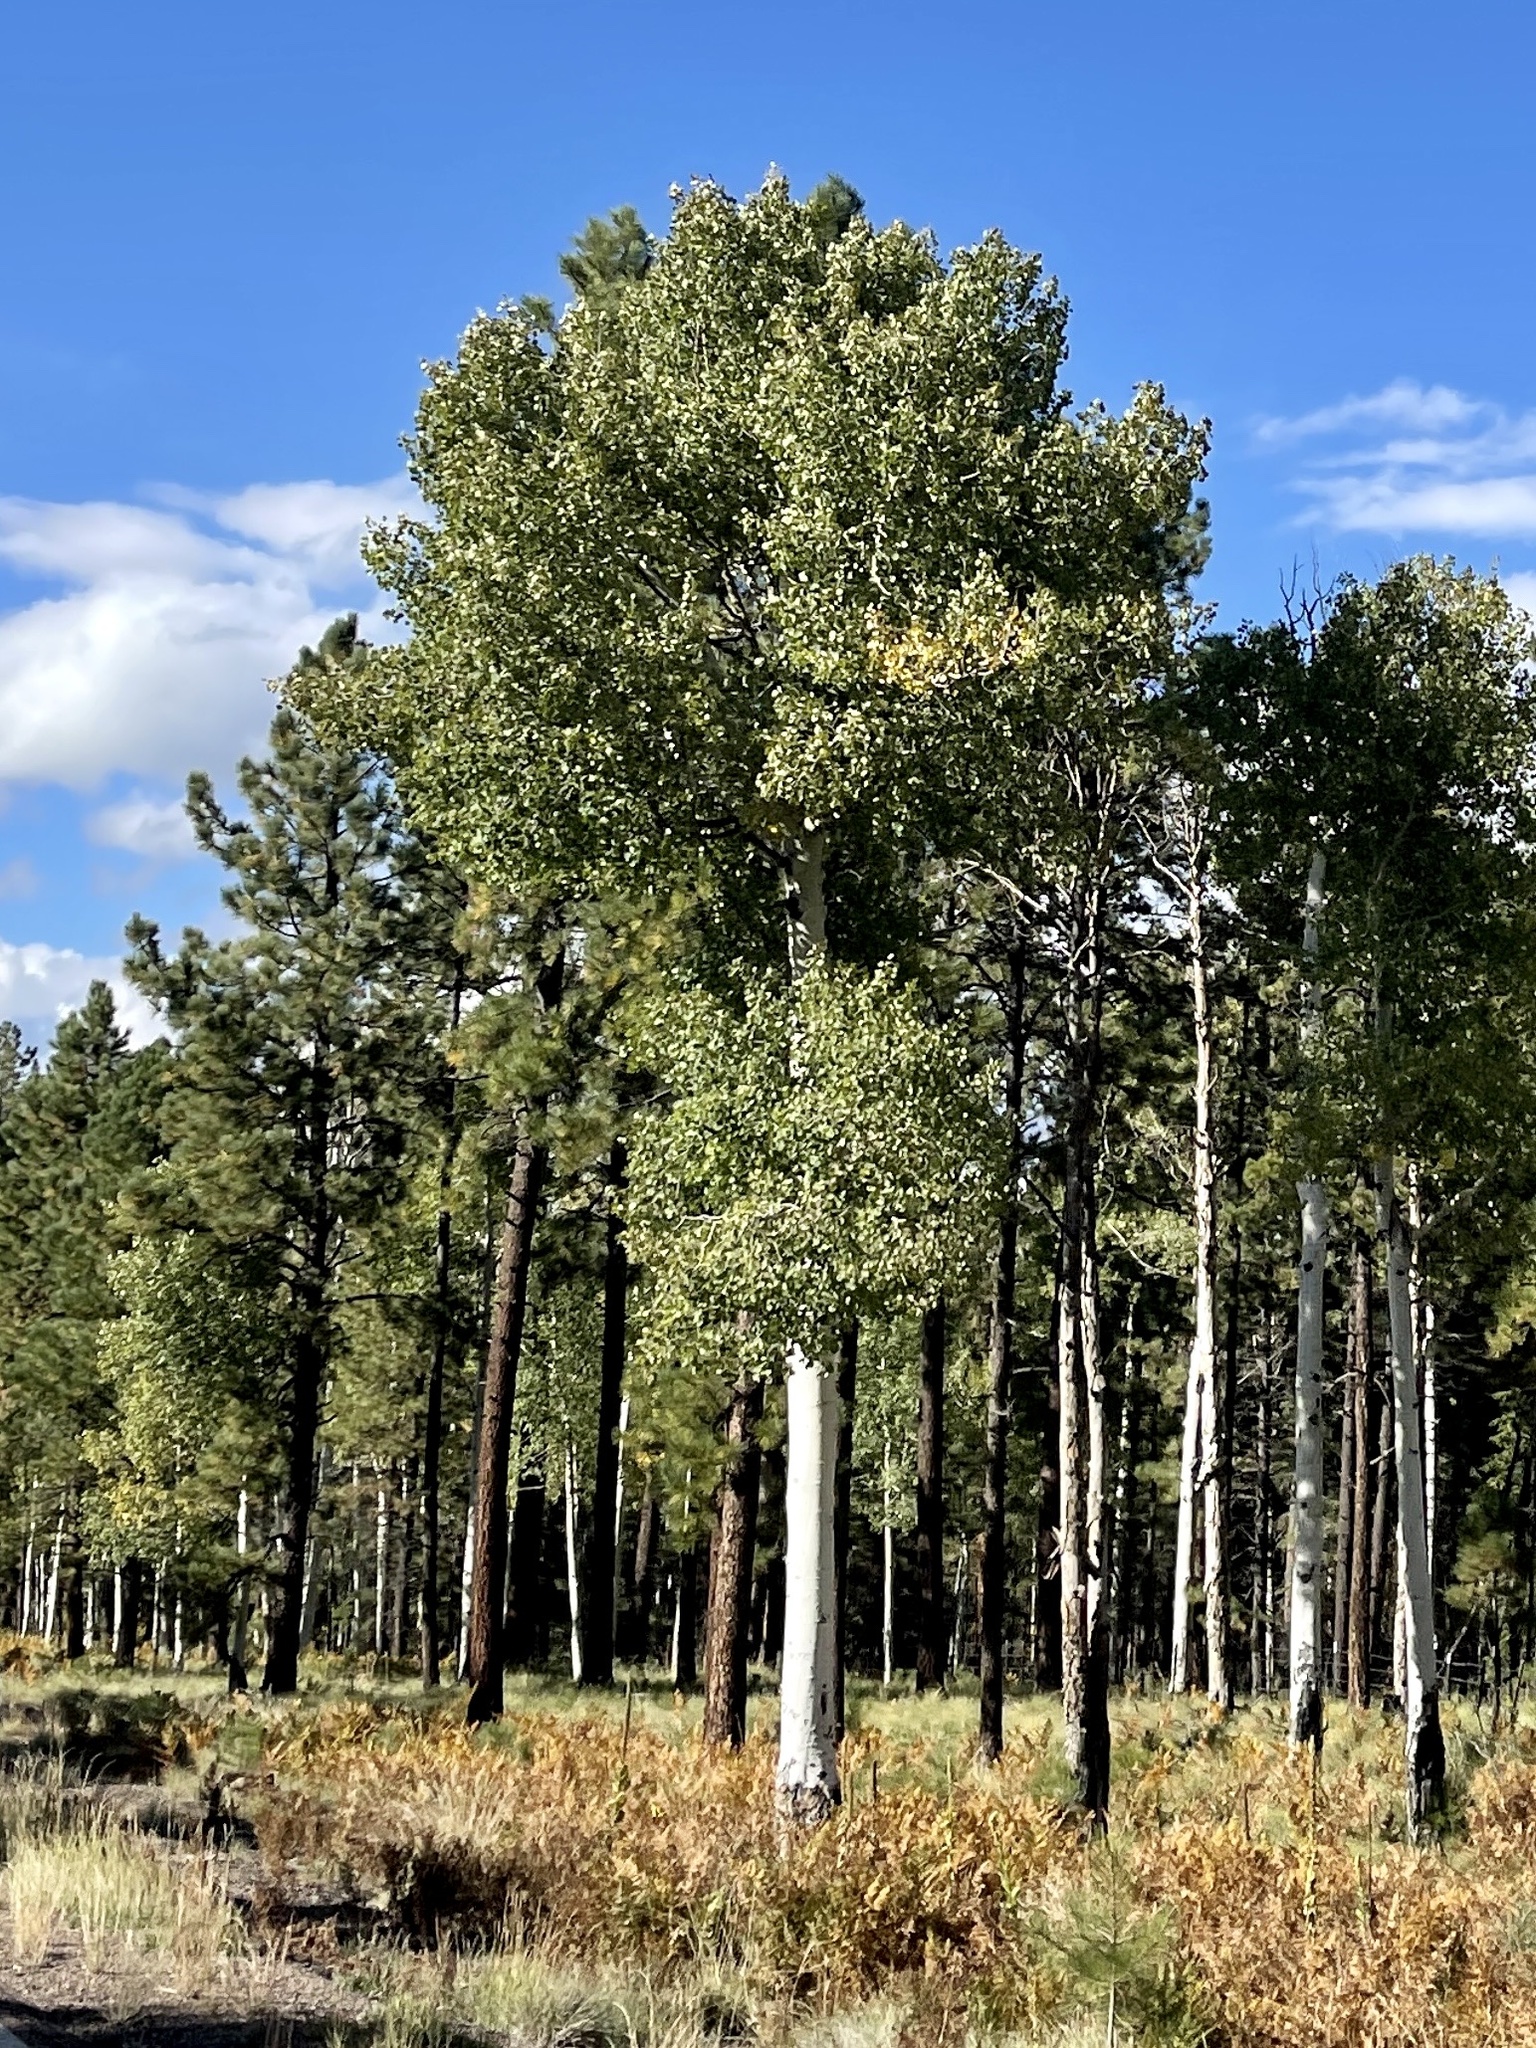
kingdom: Plantae
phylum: Tracheophyta
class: Magnoliopsida
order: Malpighiales
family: Salicaceae
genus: Populus
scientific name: Populus tremuloides
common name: Quaking aspen
